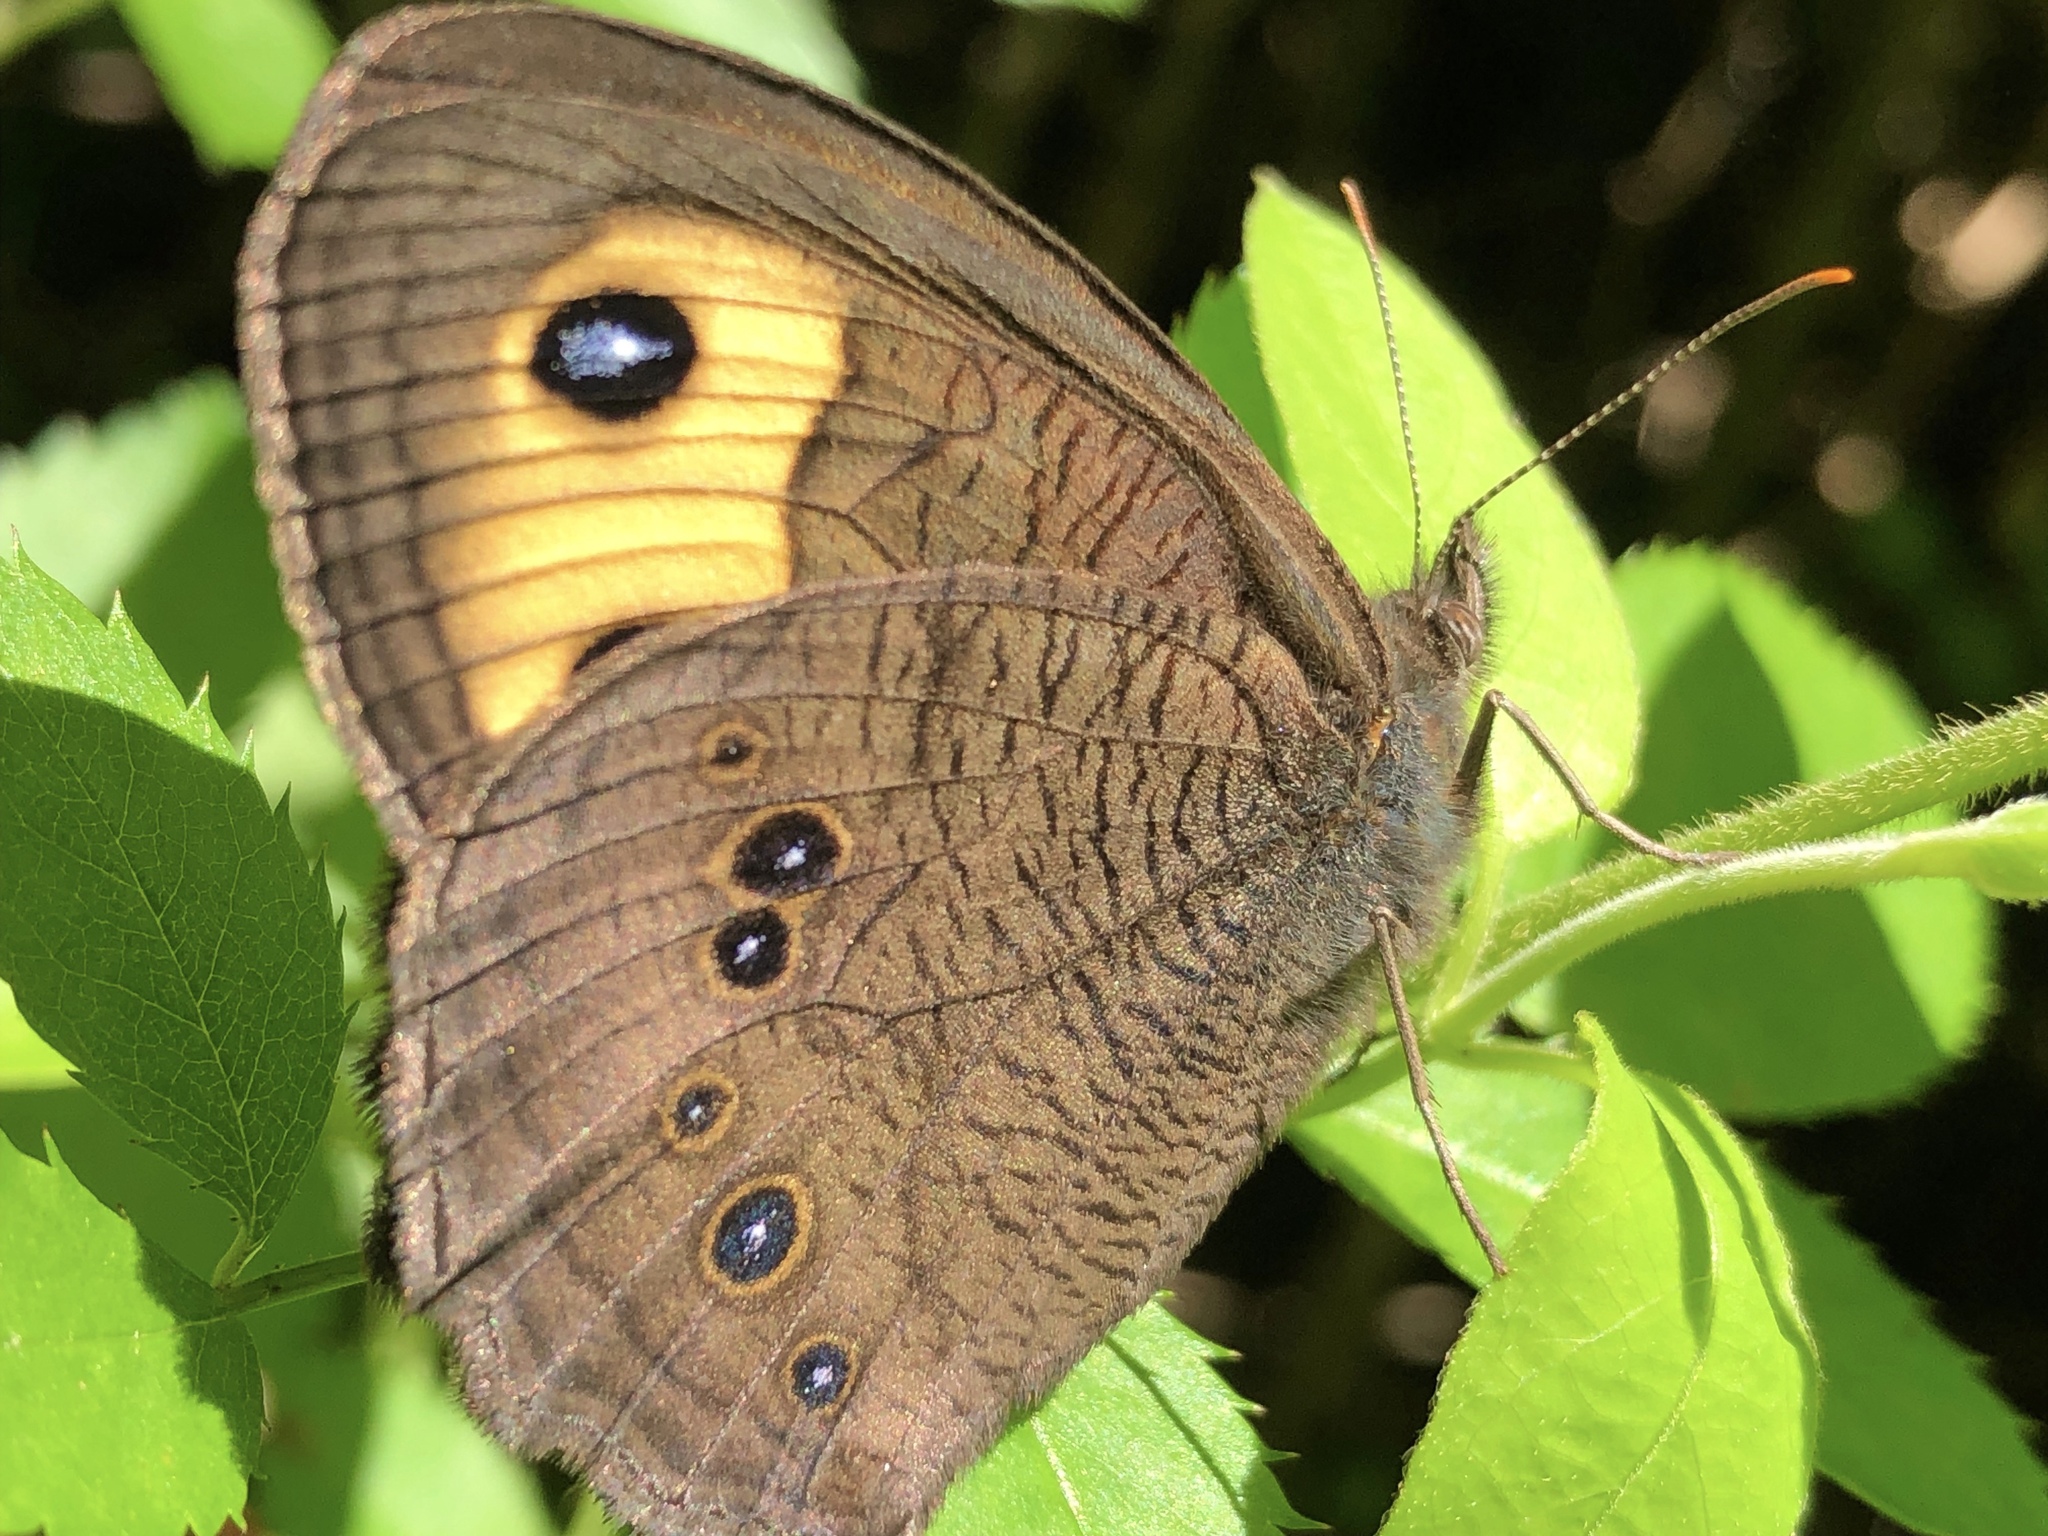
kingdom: Animalia
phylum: Arthropoda
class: Insecta
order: Lepidoptera
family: Nymphalidae
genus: Cercyonis
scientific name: Cercyonis pegala
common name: Common wood-nymph
